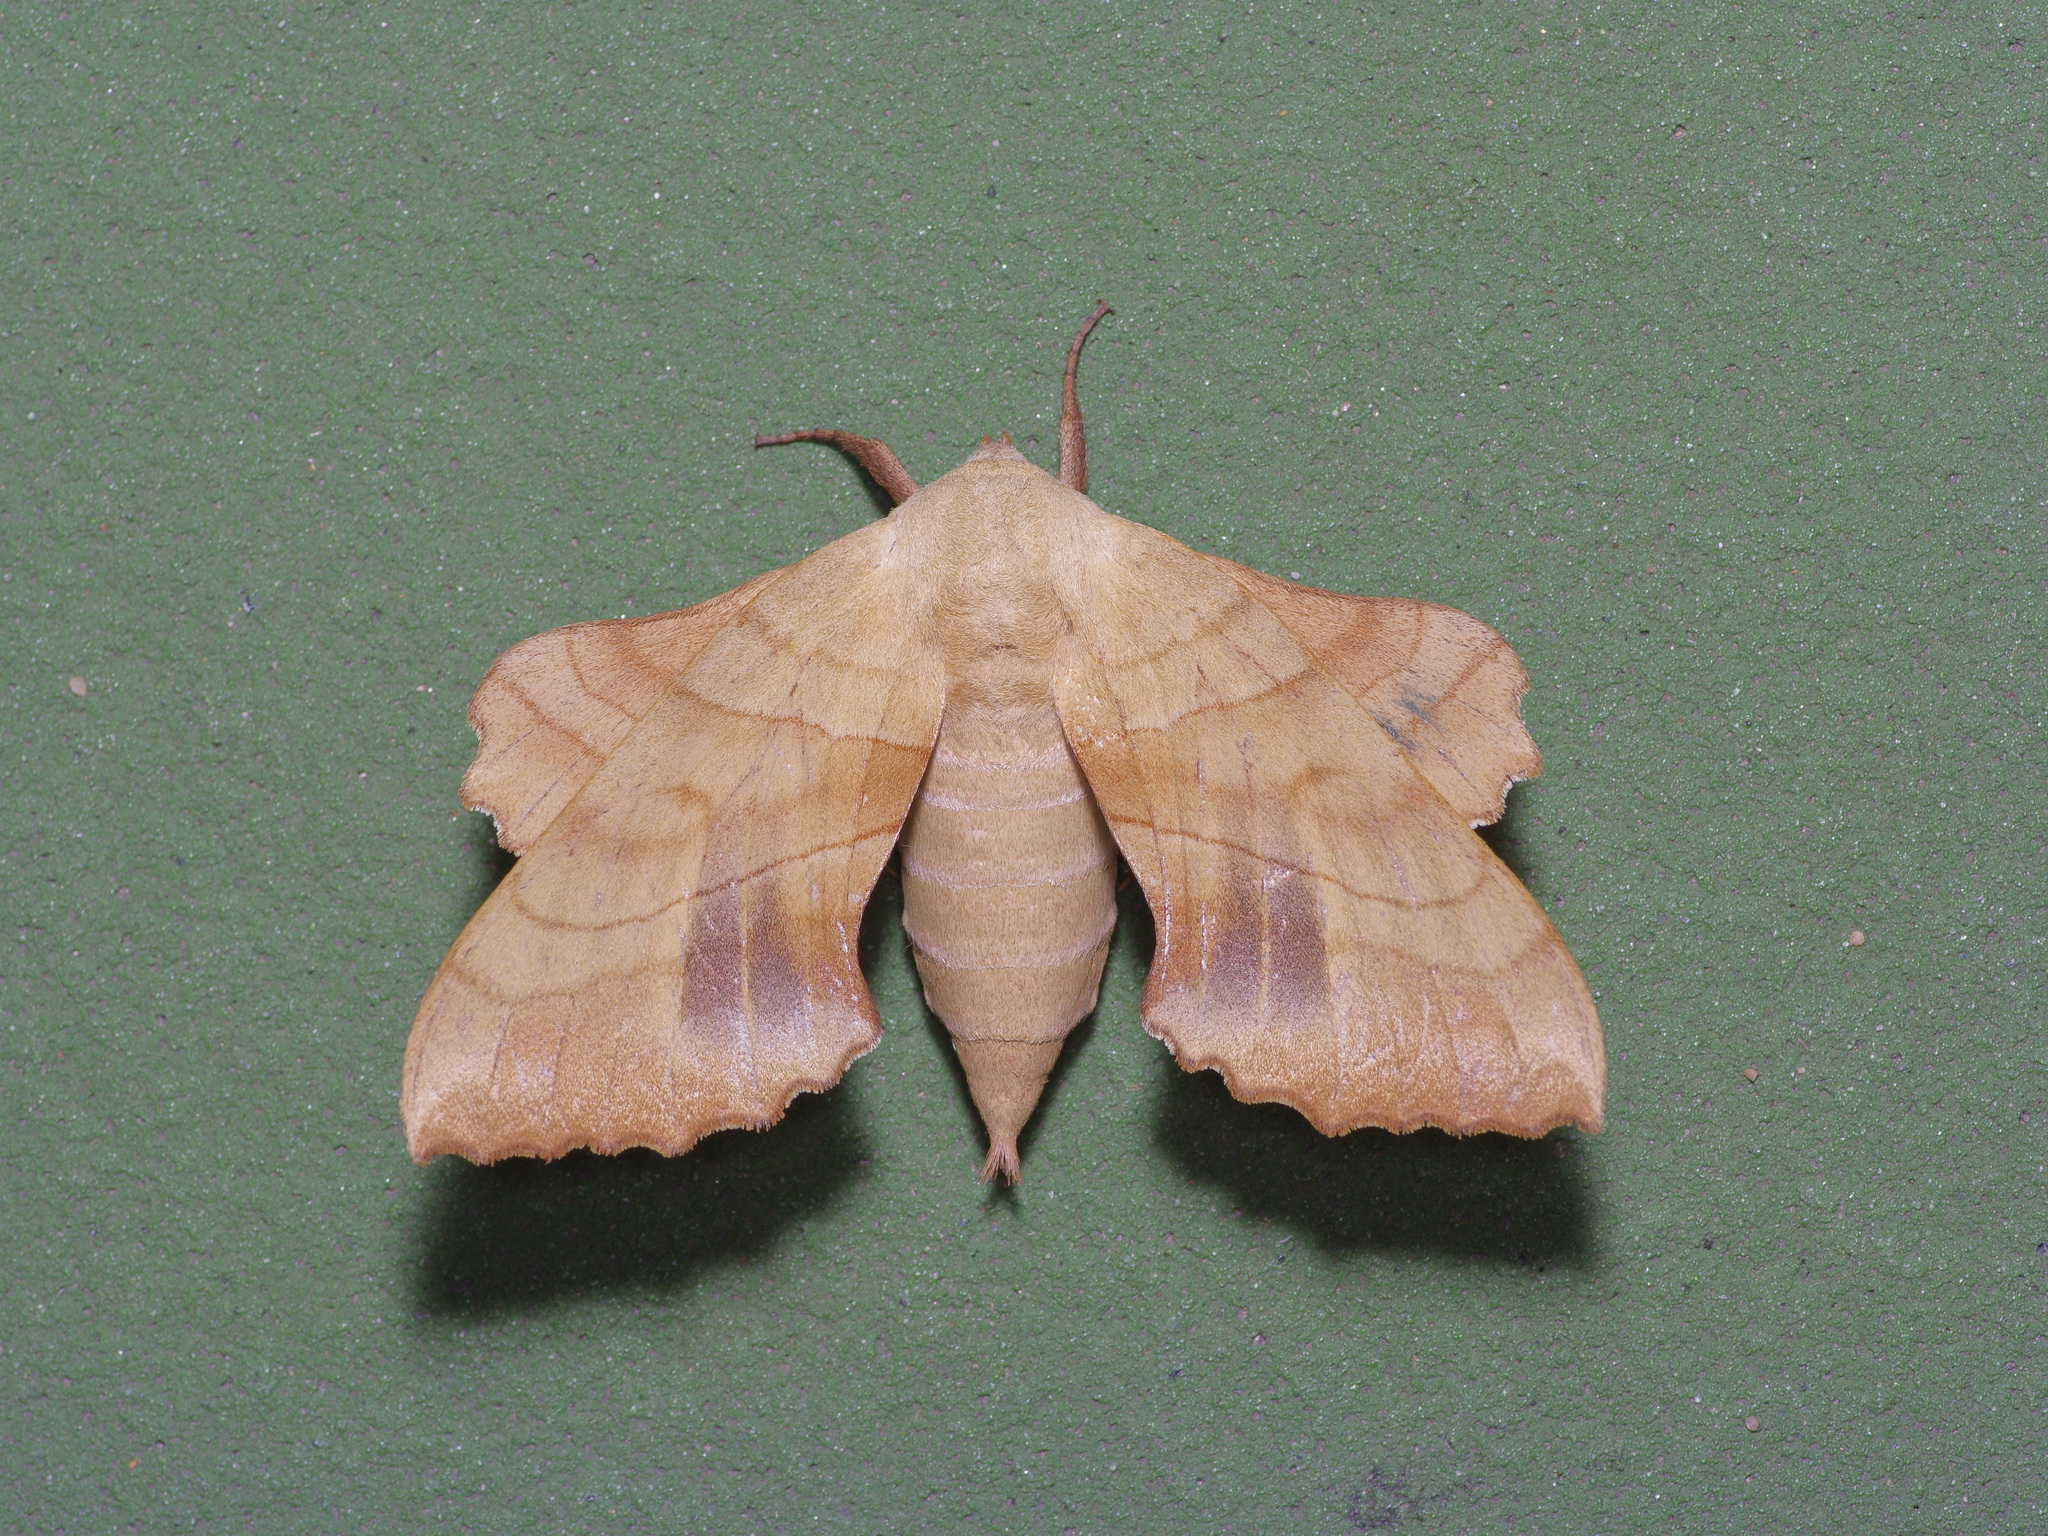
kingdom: Animalia
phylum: Arthropoda
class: Insecta
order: Lepidoptera
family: Sphingidae
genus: Amorpha
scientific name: Amorpha juglandis
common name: Walnut sphinx
